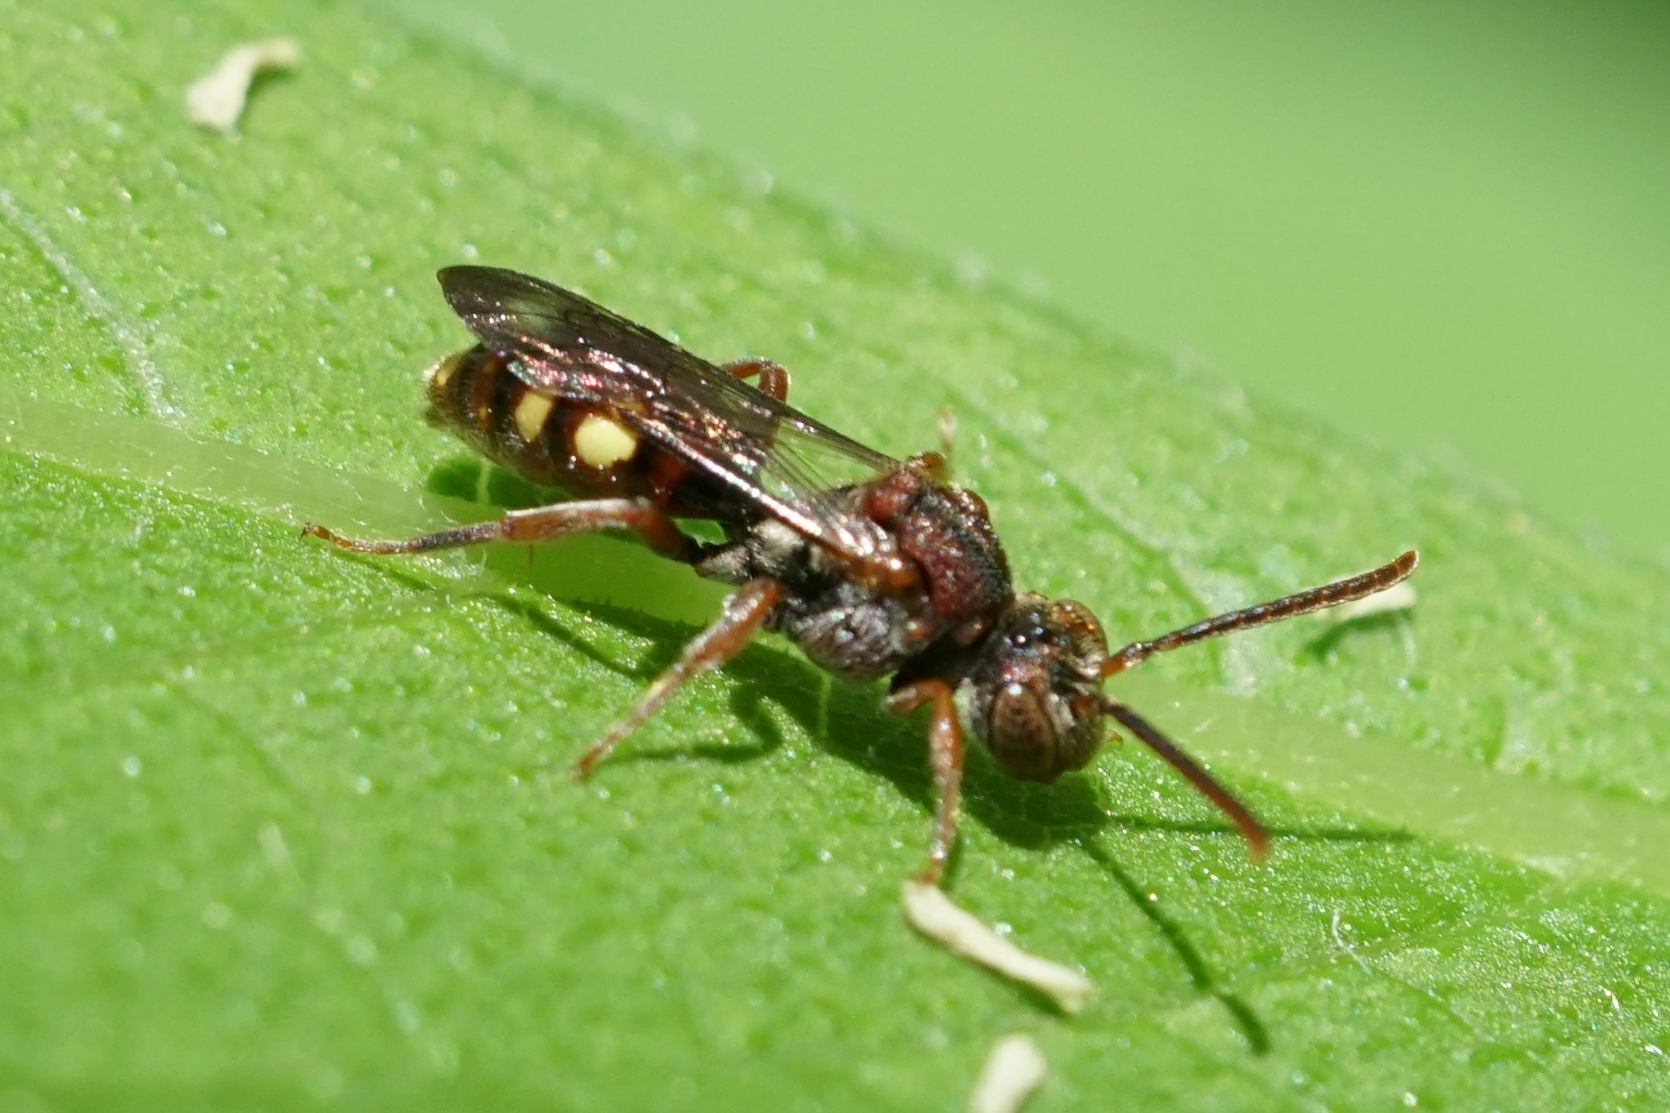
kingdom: Animalia
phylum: Arthropoda
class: Insecta
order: Hymenoptera
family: Apidae
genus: Nomada
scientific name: Nomada
